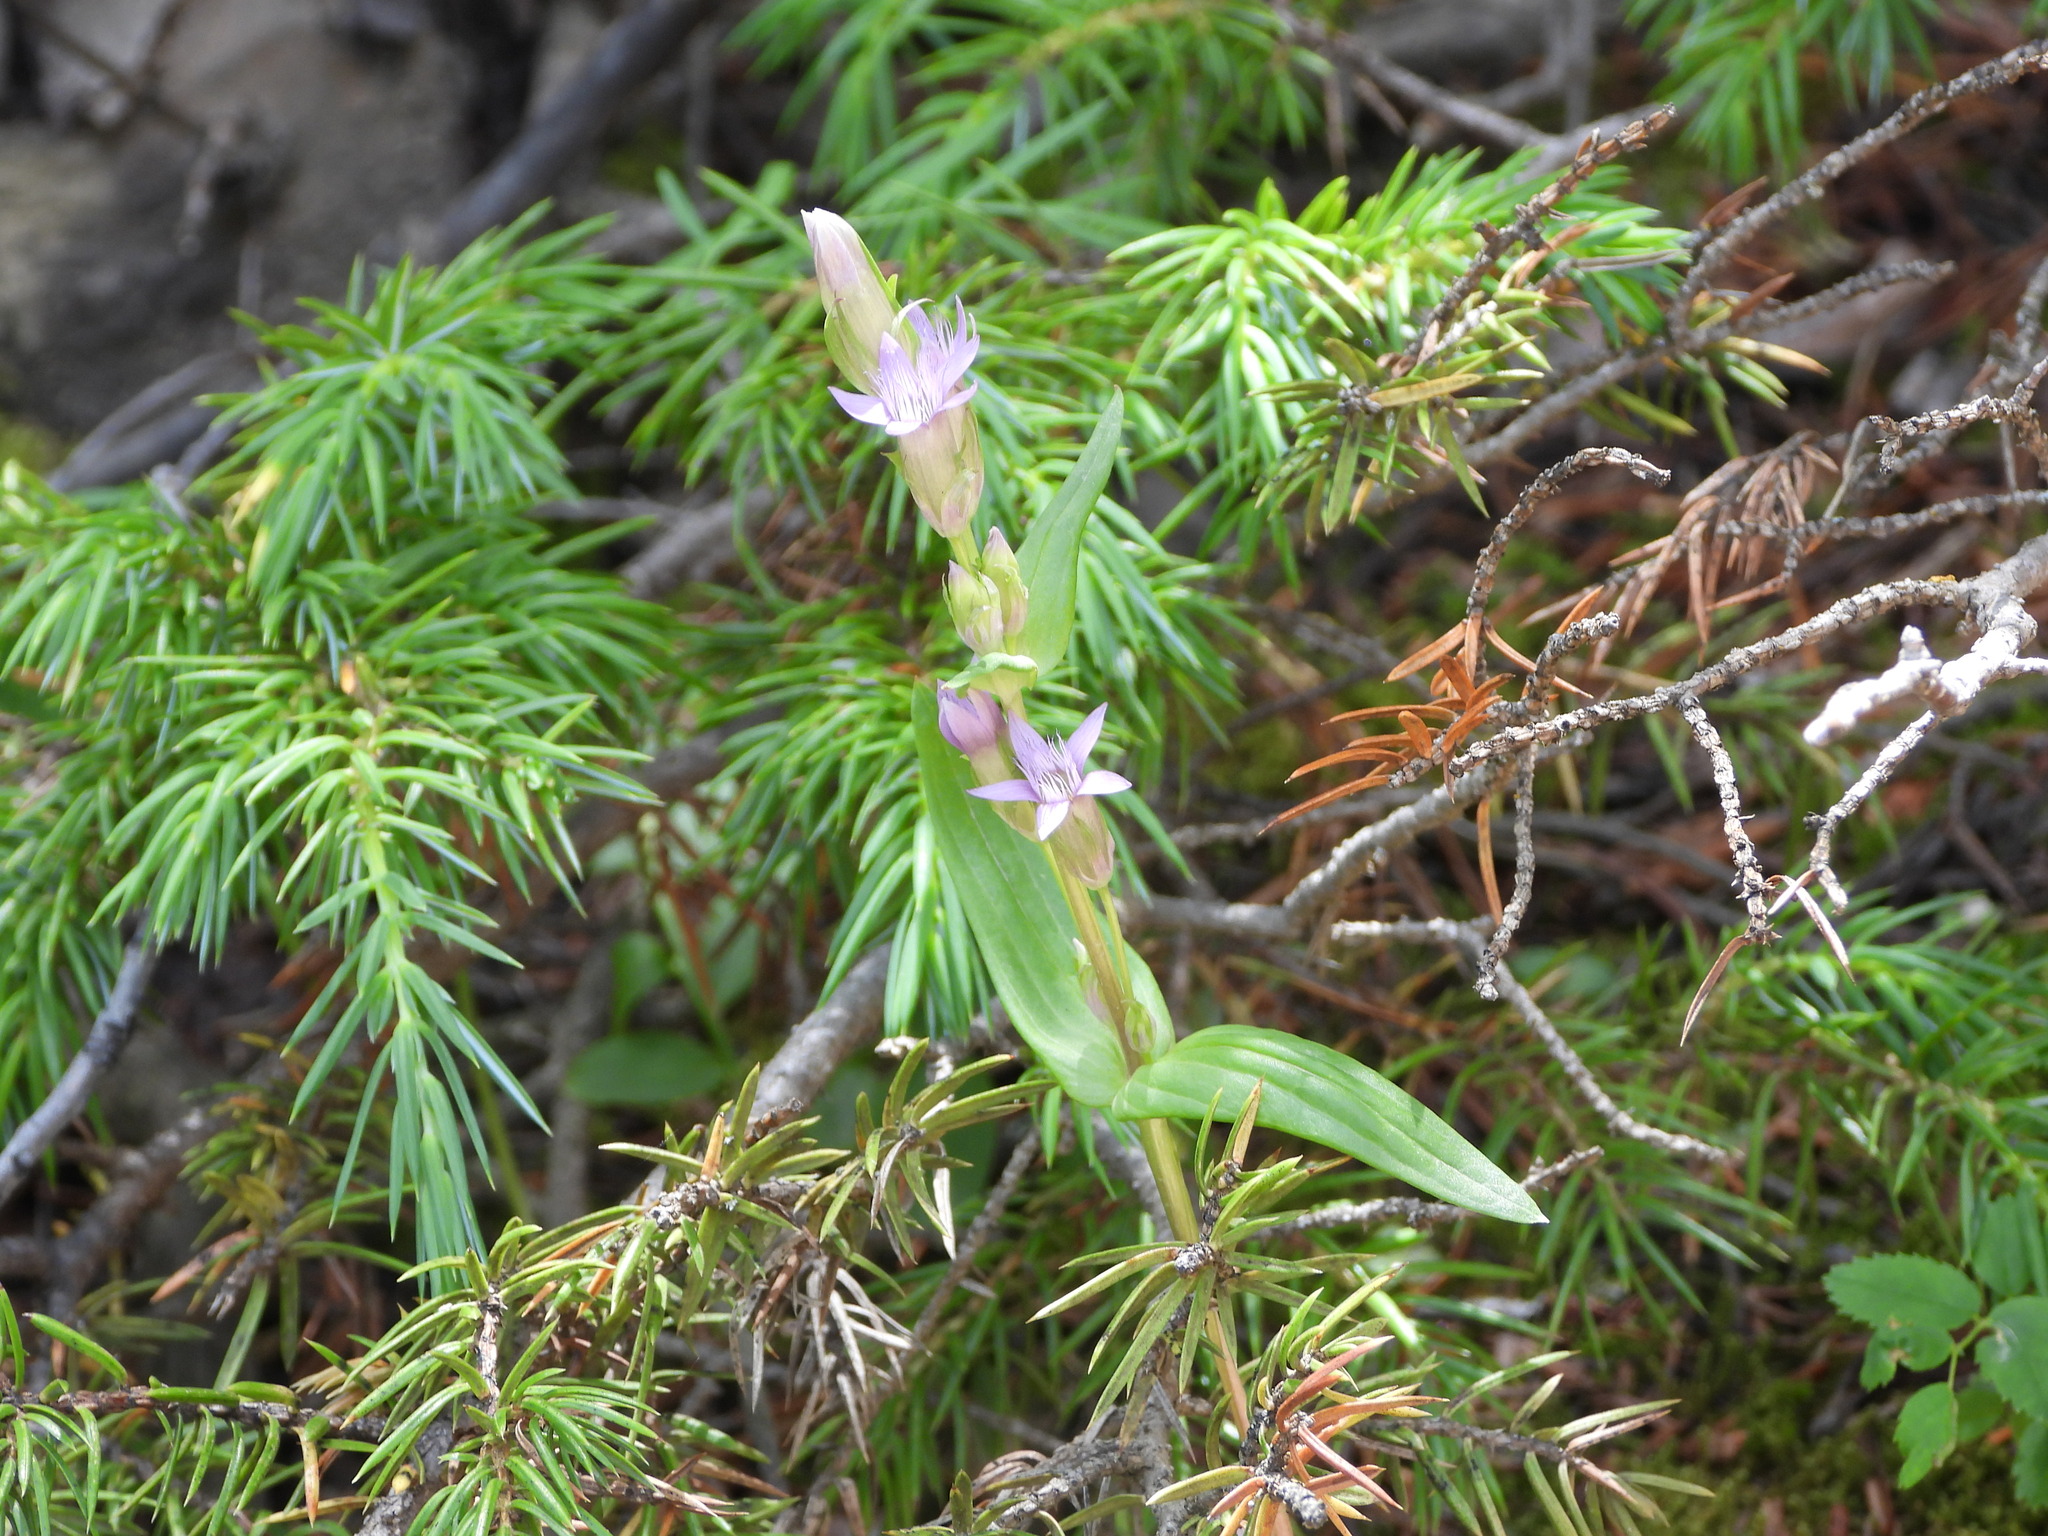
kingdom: Plantae
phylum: Tracheophyta
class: Magnoliopsida
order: Gentianales
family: Gentianaceae
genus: Gentianella
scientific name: Gentianella amarella
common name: Autumn gentian
